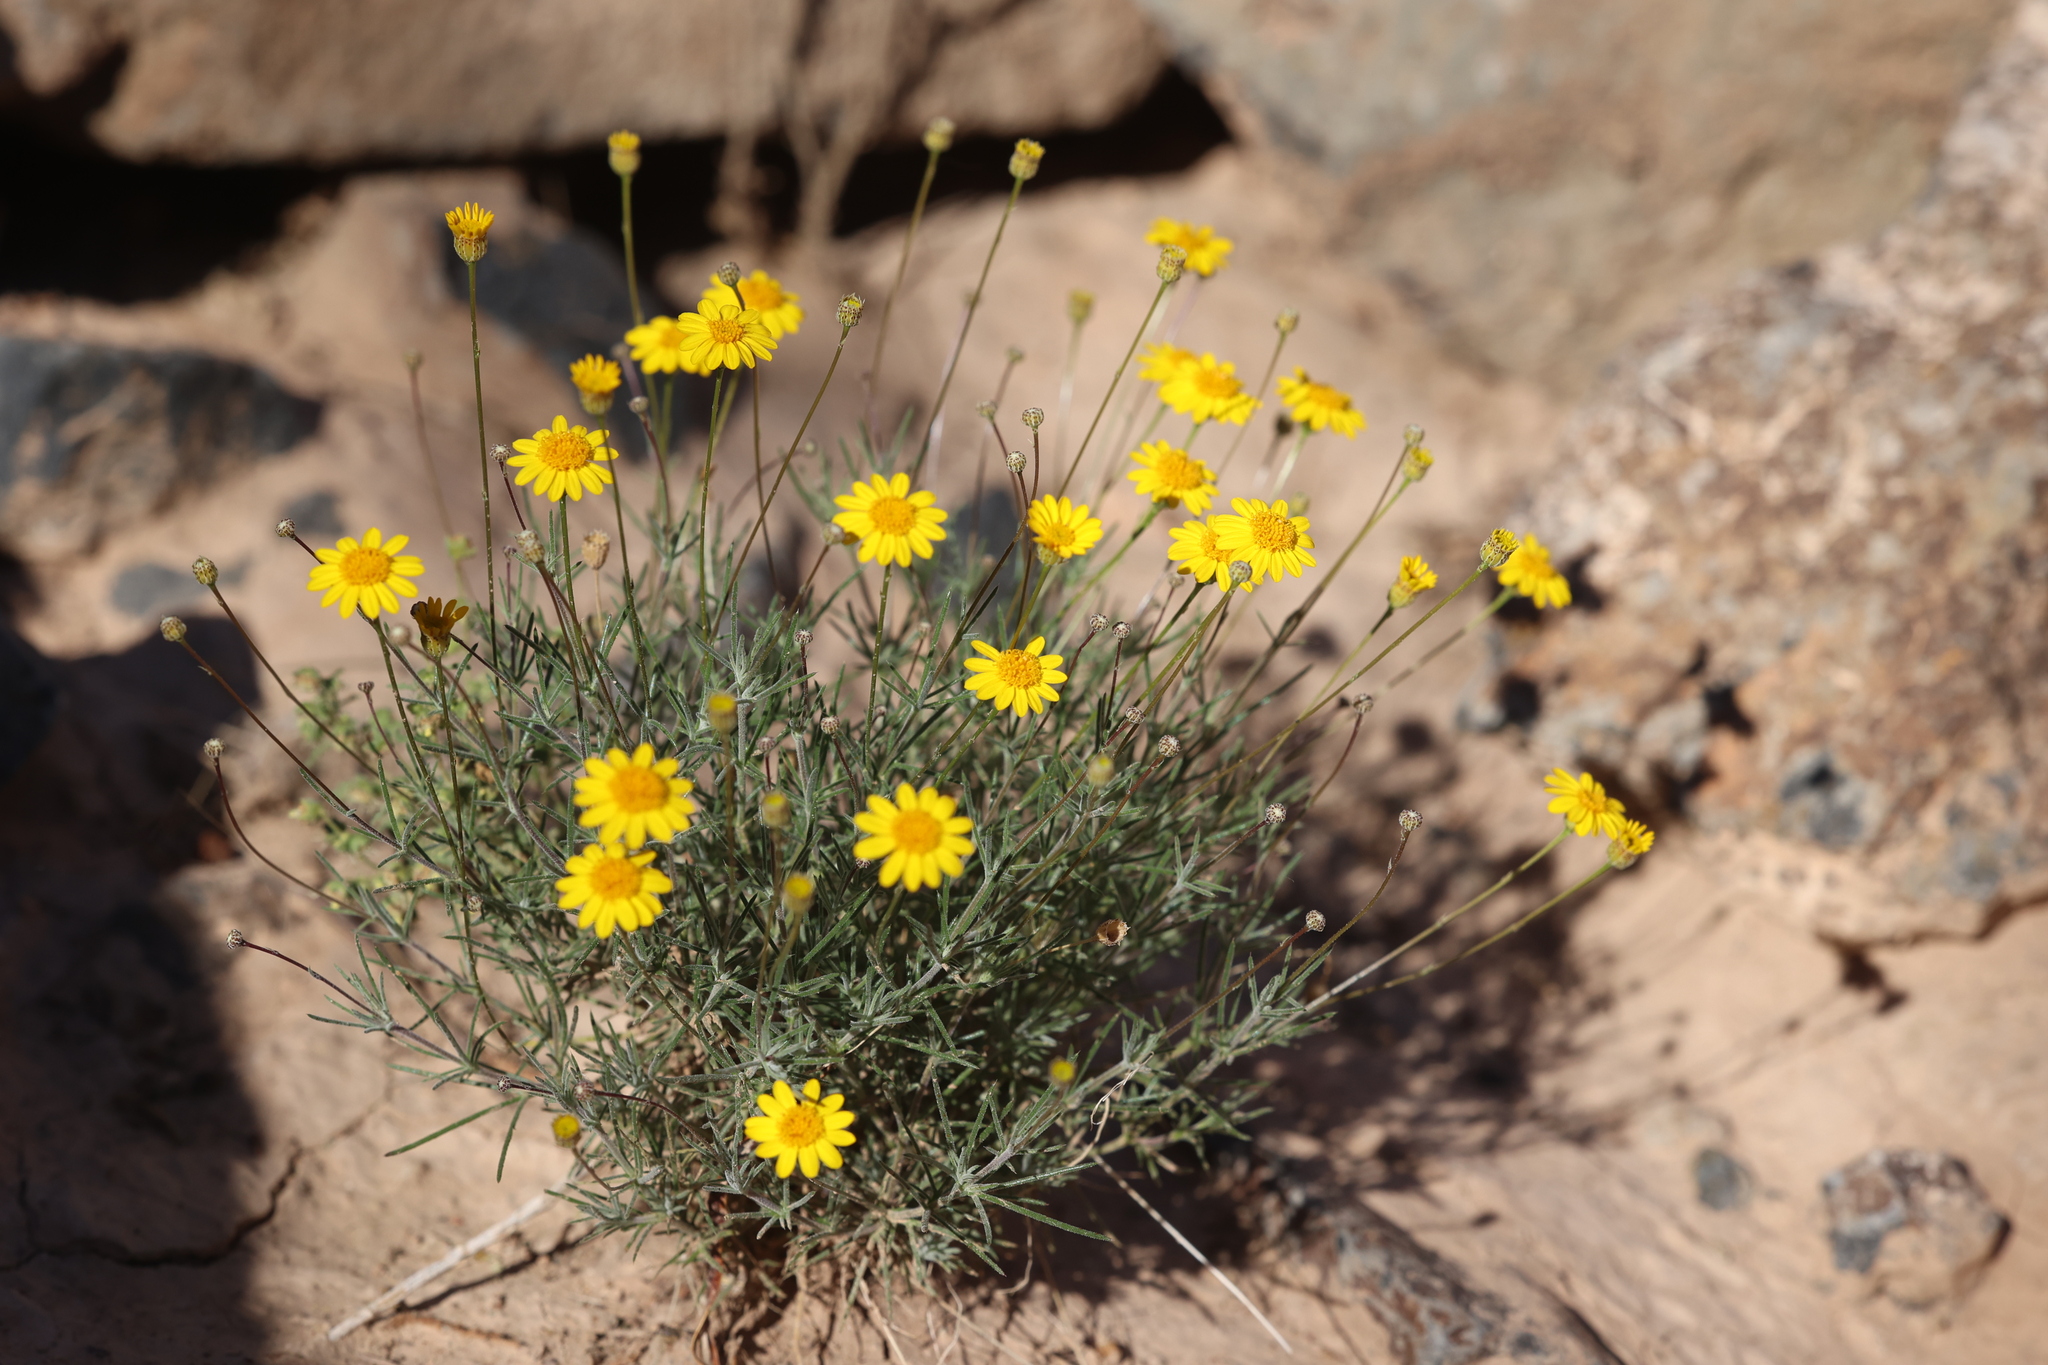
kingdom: Plantae
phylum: Tracheophyta
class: Magnoliopsida
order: Asterales
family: Asteraceae
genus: Thymophylla
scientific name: Thymophylla pentachaeta
